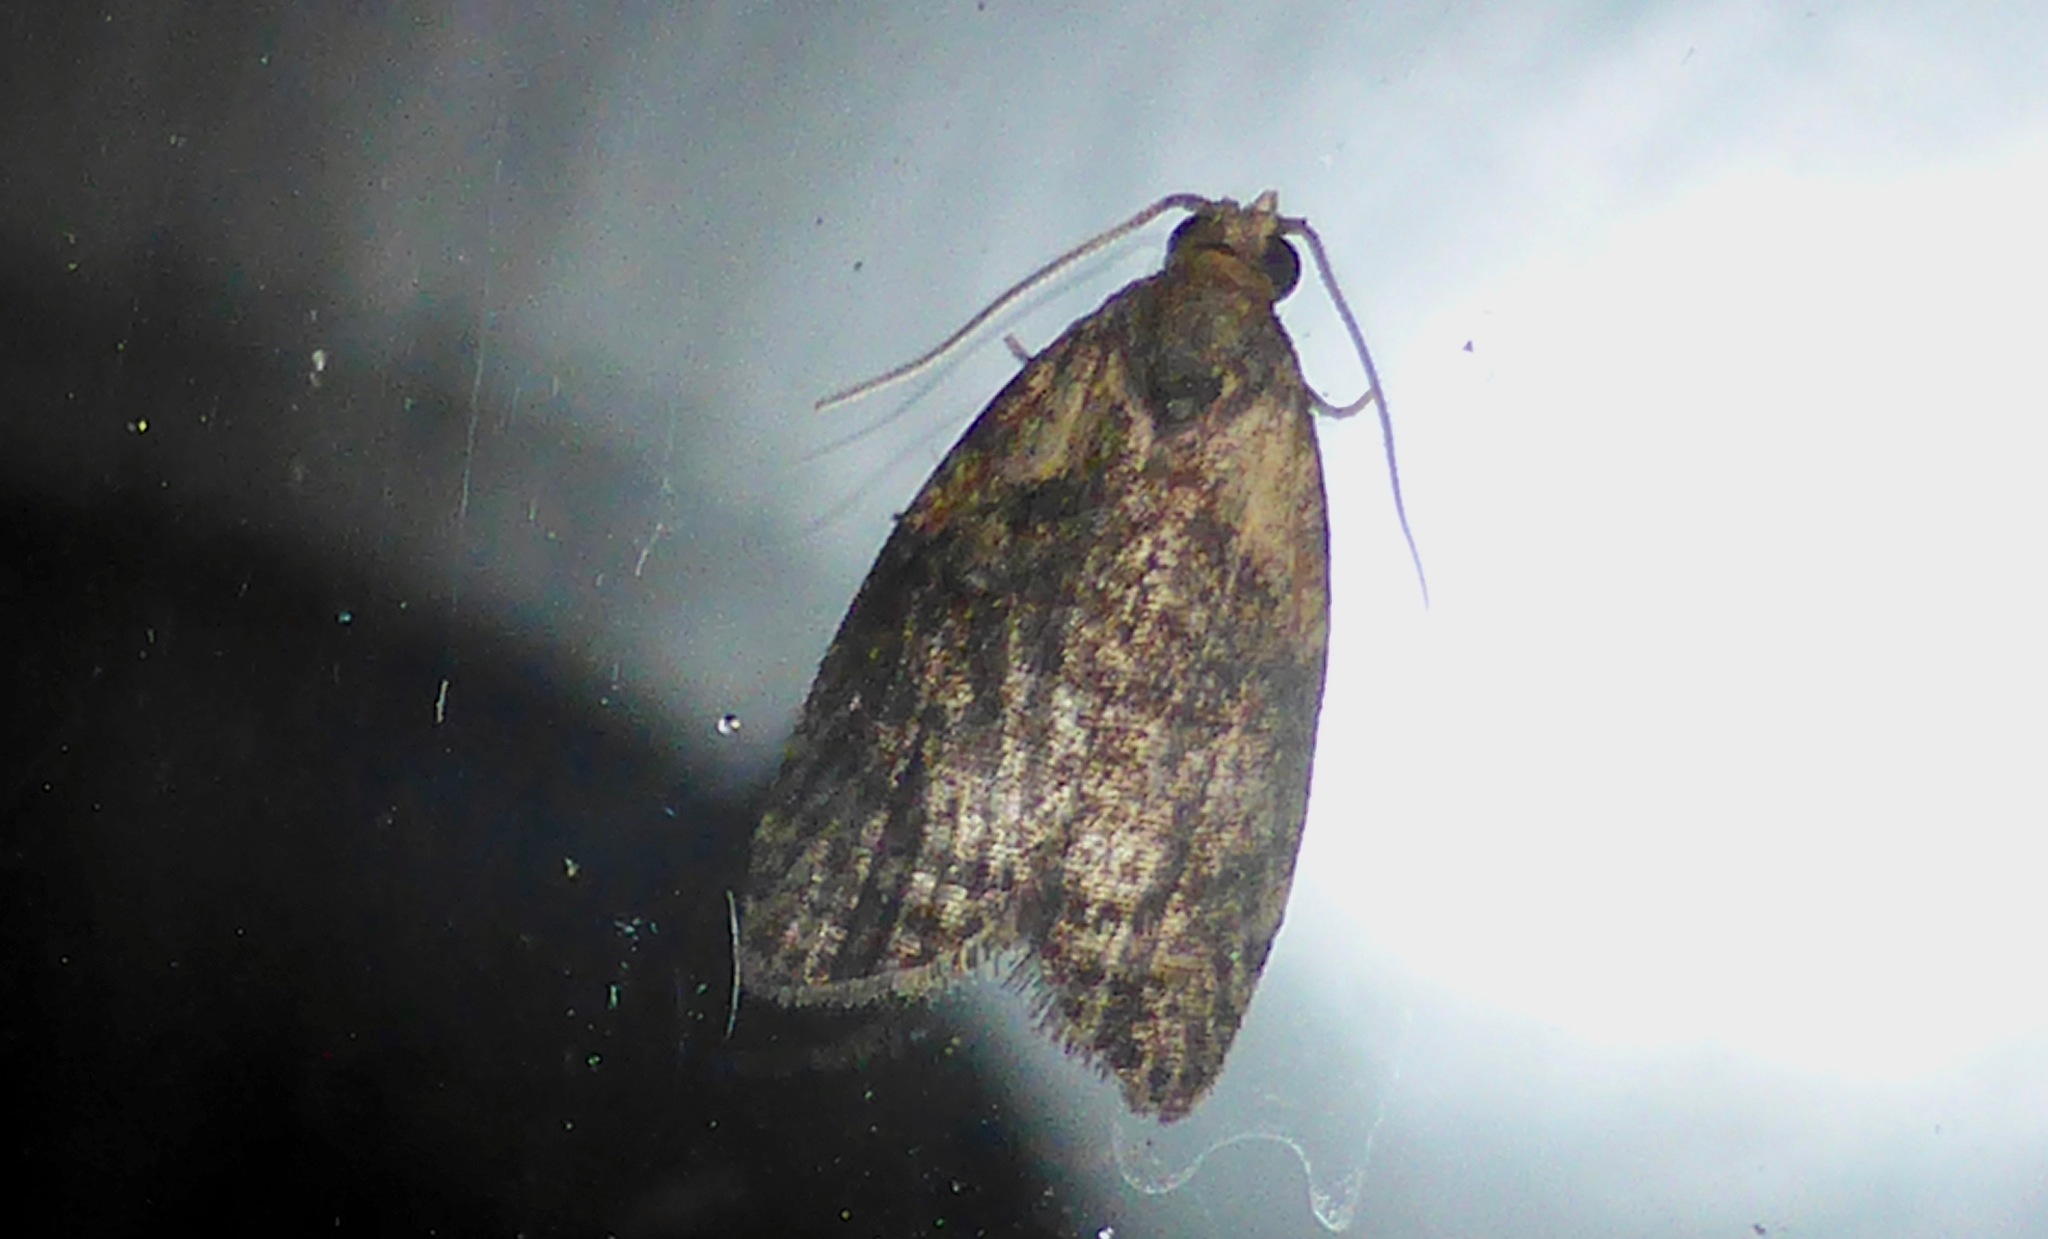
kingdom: Animalia
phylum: Arthropoda
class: Insecta
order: Lepidoptera
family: Tortricidae
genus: Capua
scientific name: Capua intractana
